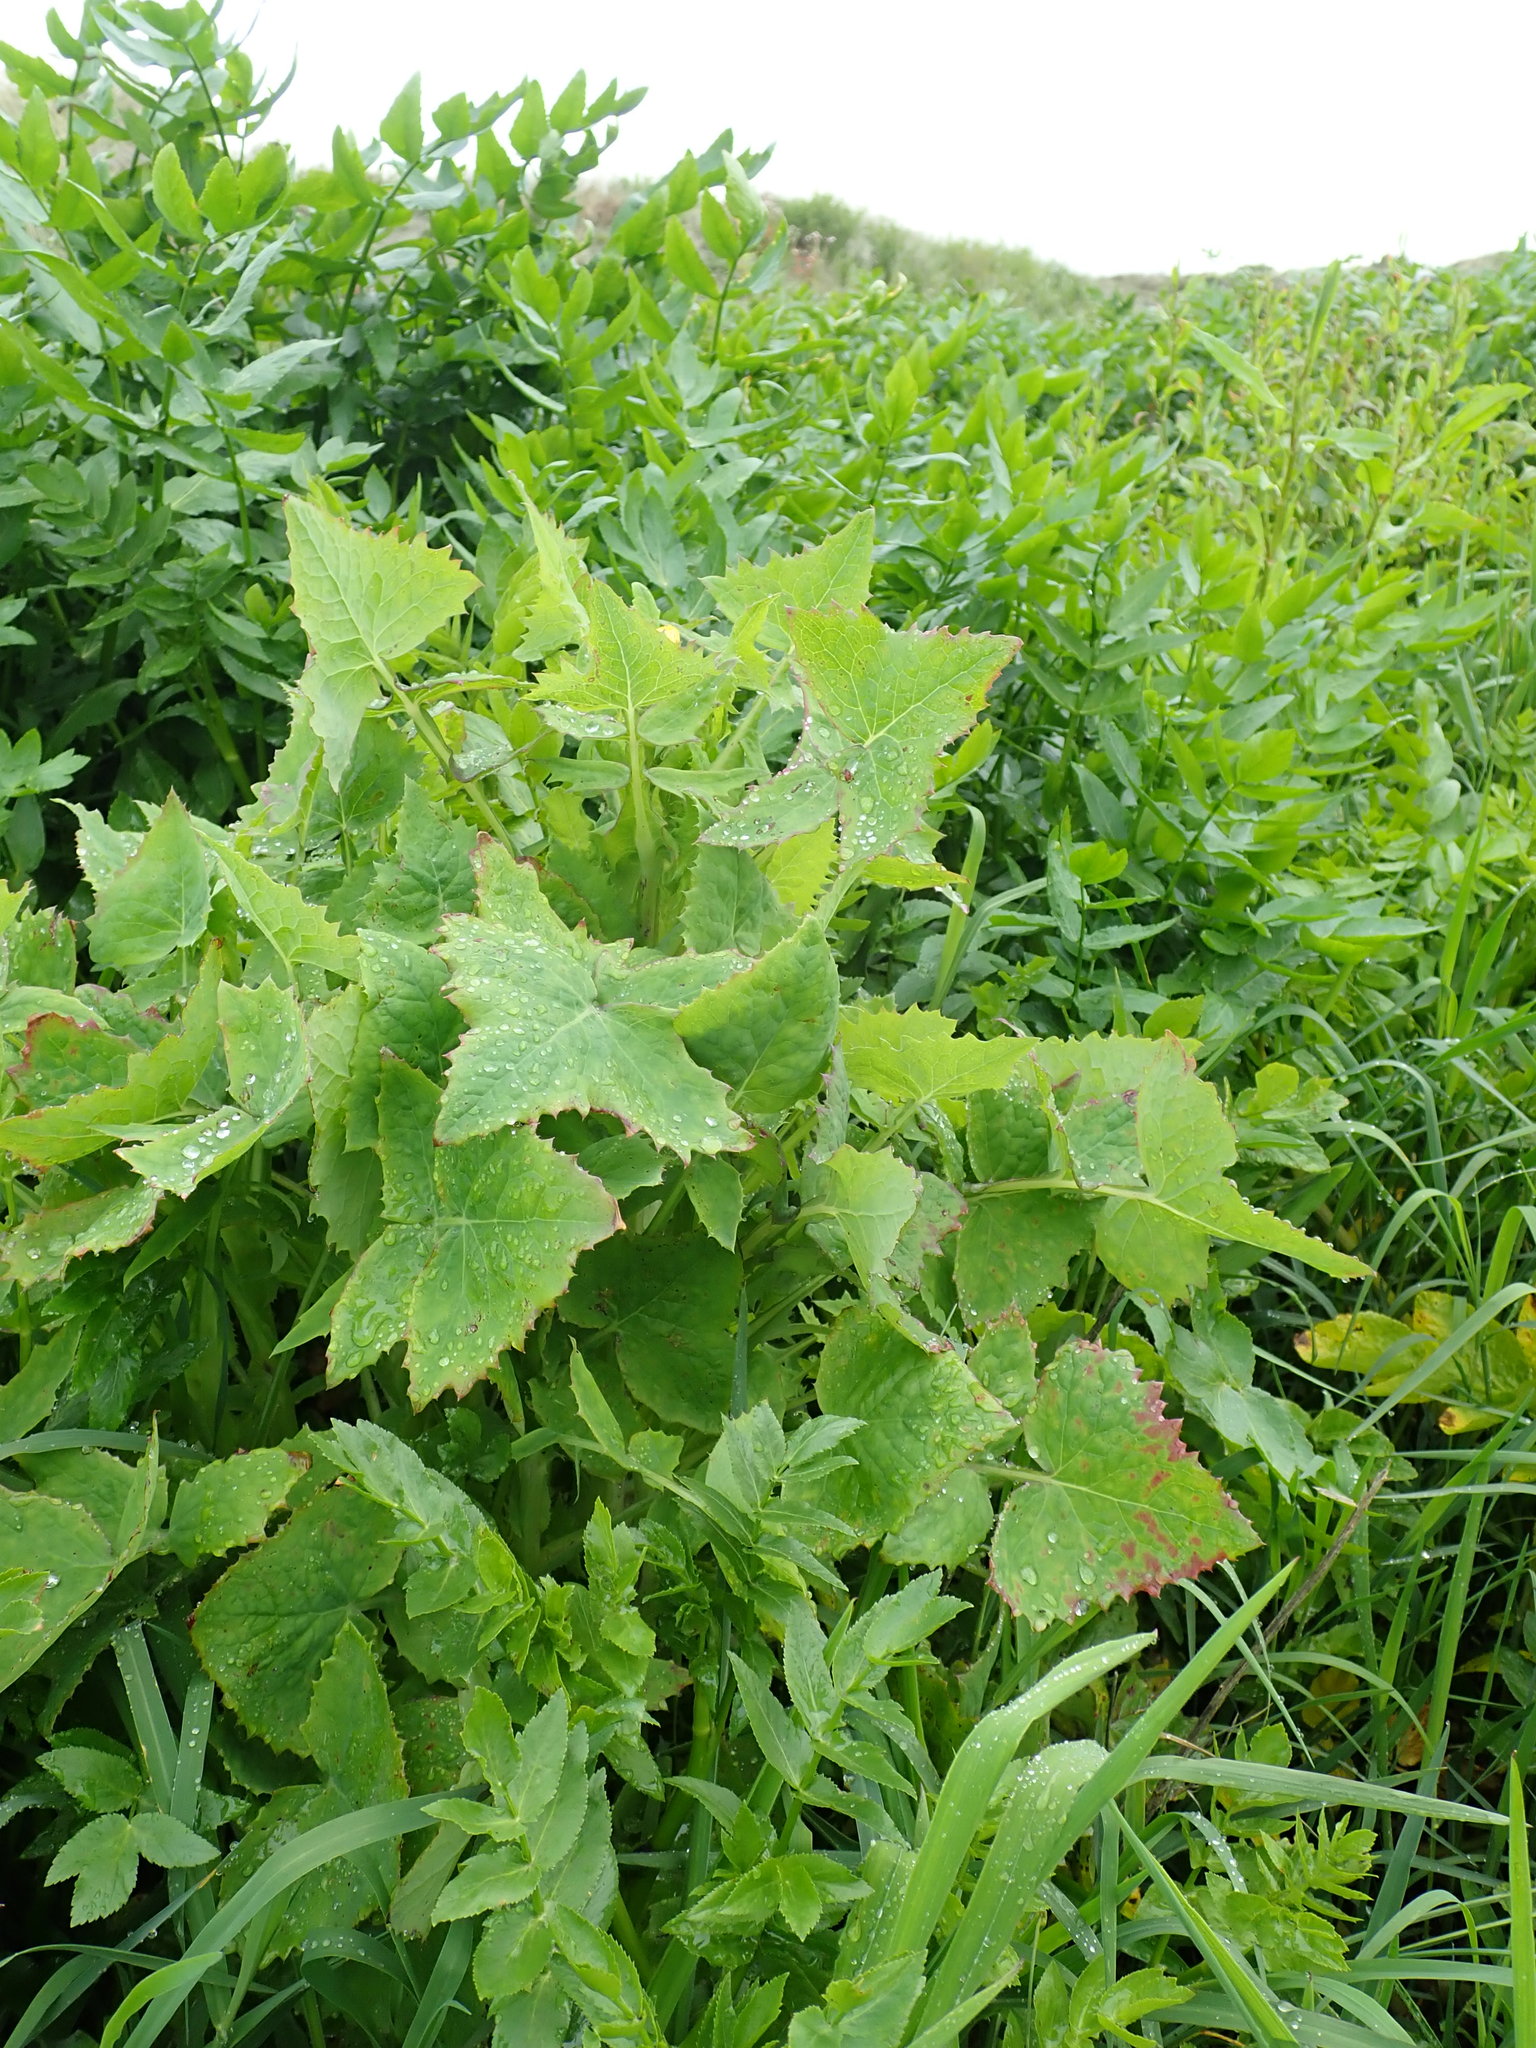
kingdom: Plantae
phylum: Tracheophyta
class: Magnoliopsida
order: Asterales
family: Asteraceae
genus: Sonchus
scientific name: Sonchus oleraceus
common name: Common sowthistle
